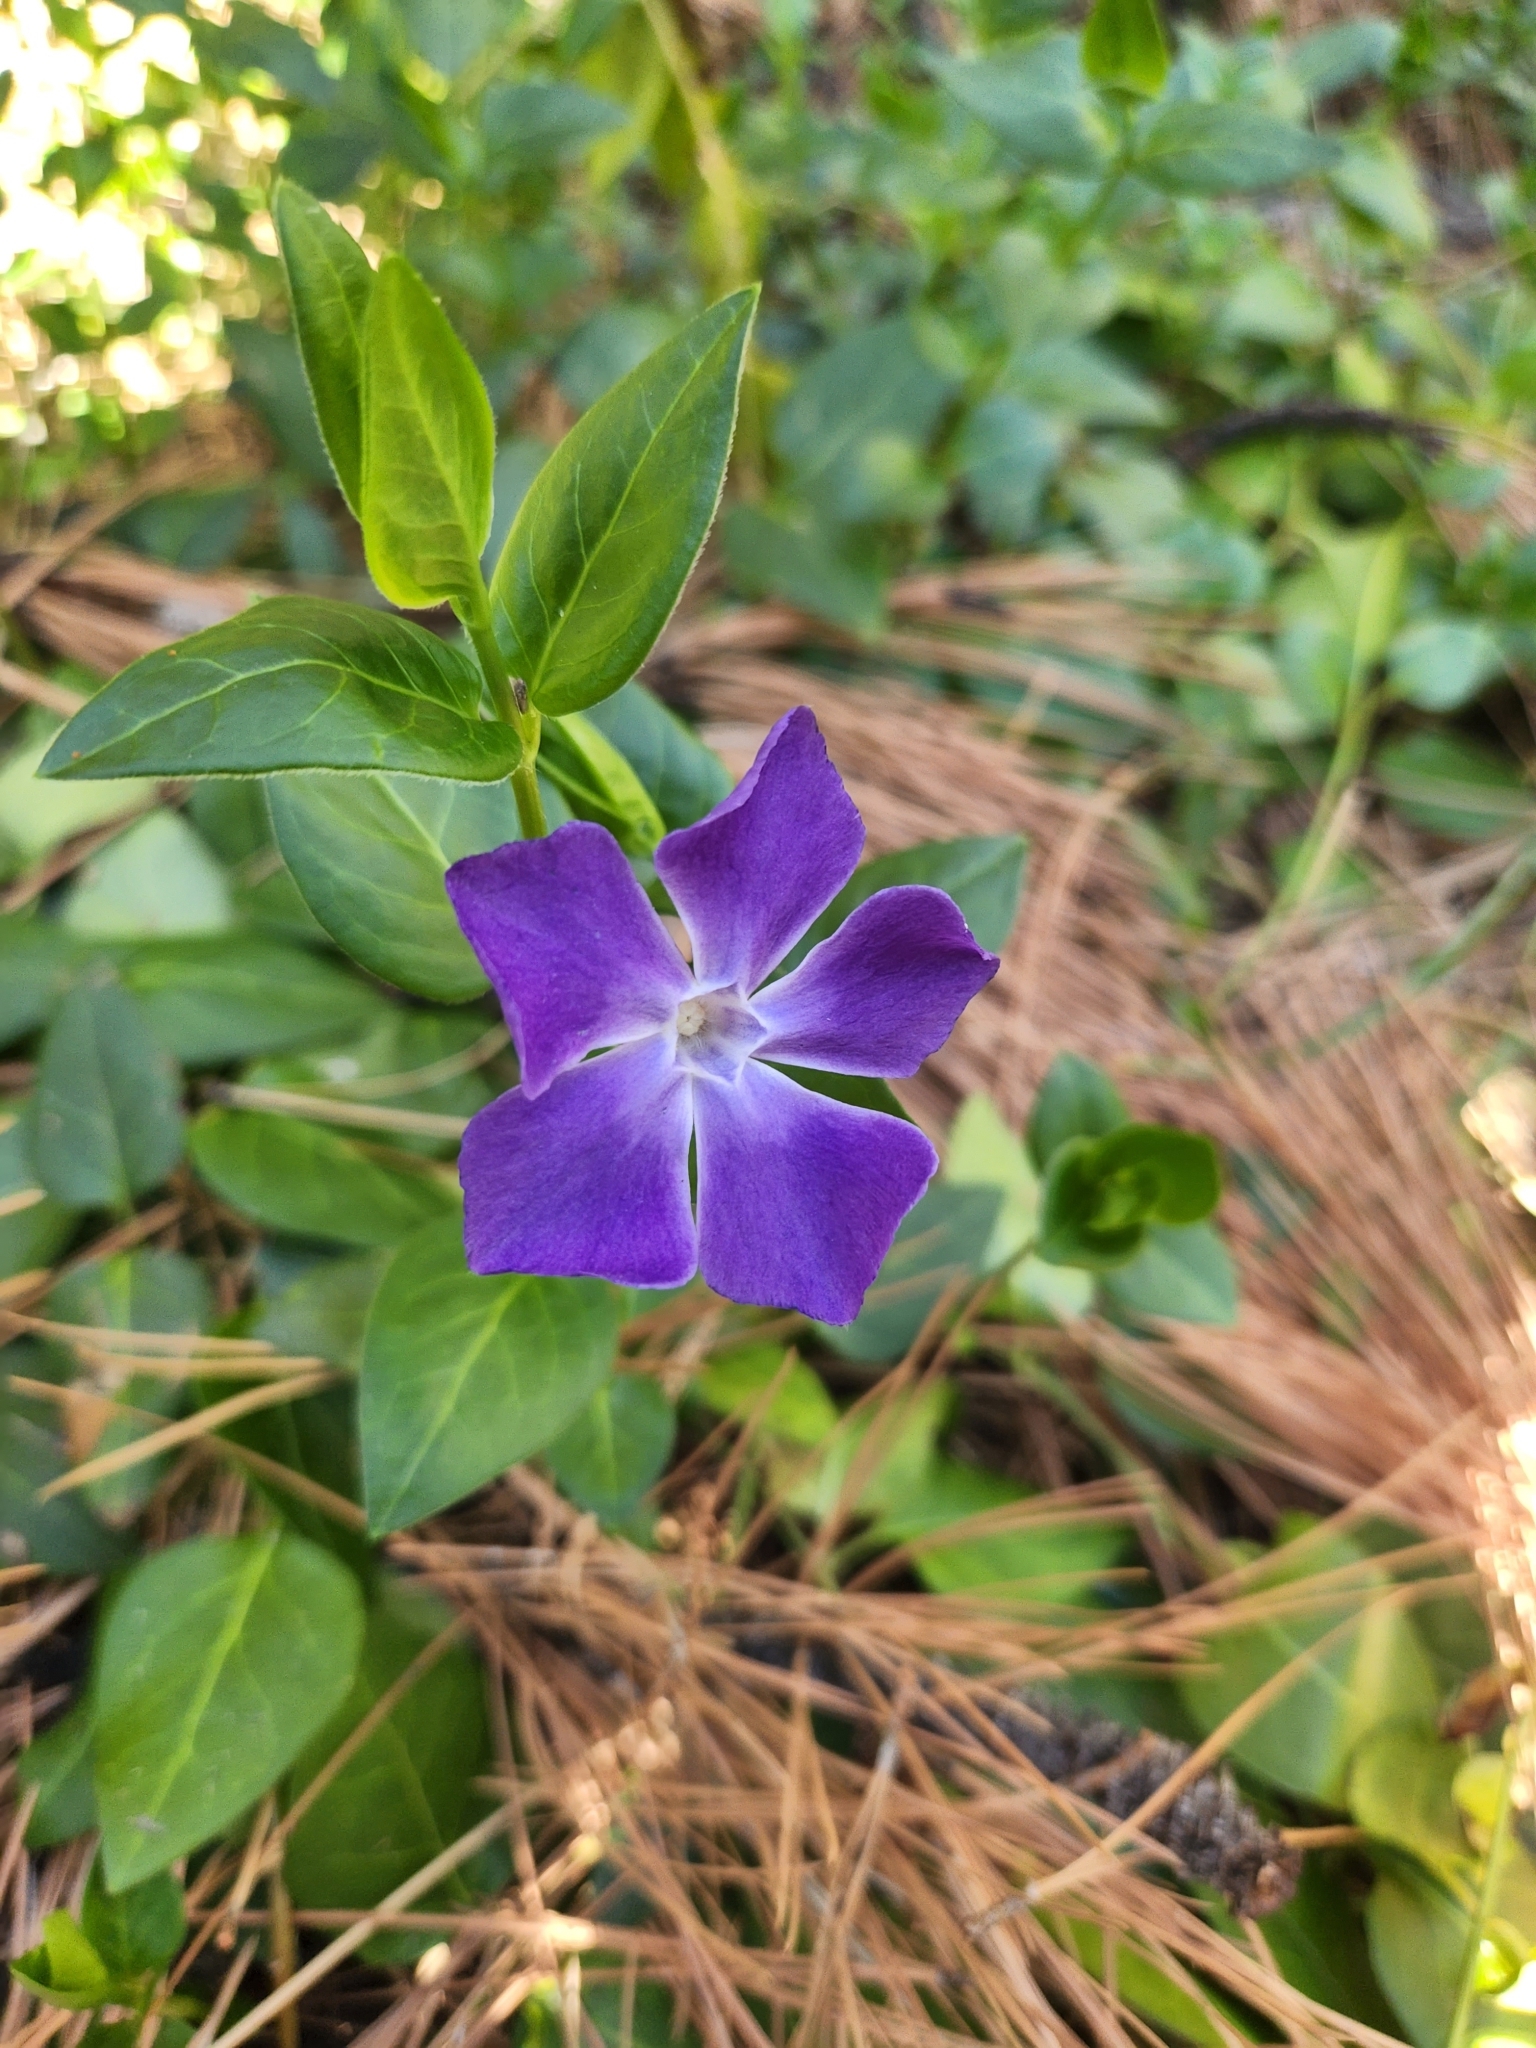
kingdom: Plantae
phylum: Tracheophyta
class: Magnoliopsida
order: Gentianales
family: Apocynaceae
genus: Vinca
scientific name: Vinca major
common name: Greater periwinkle
